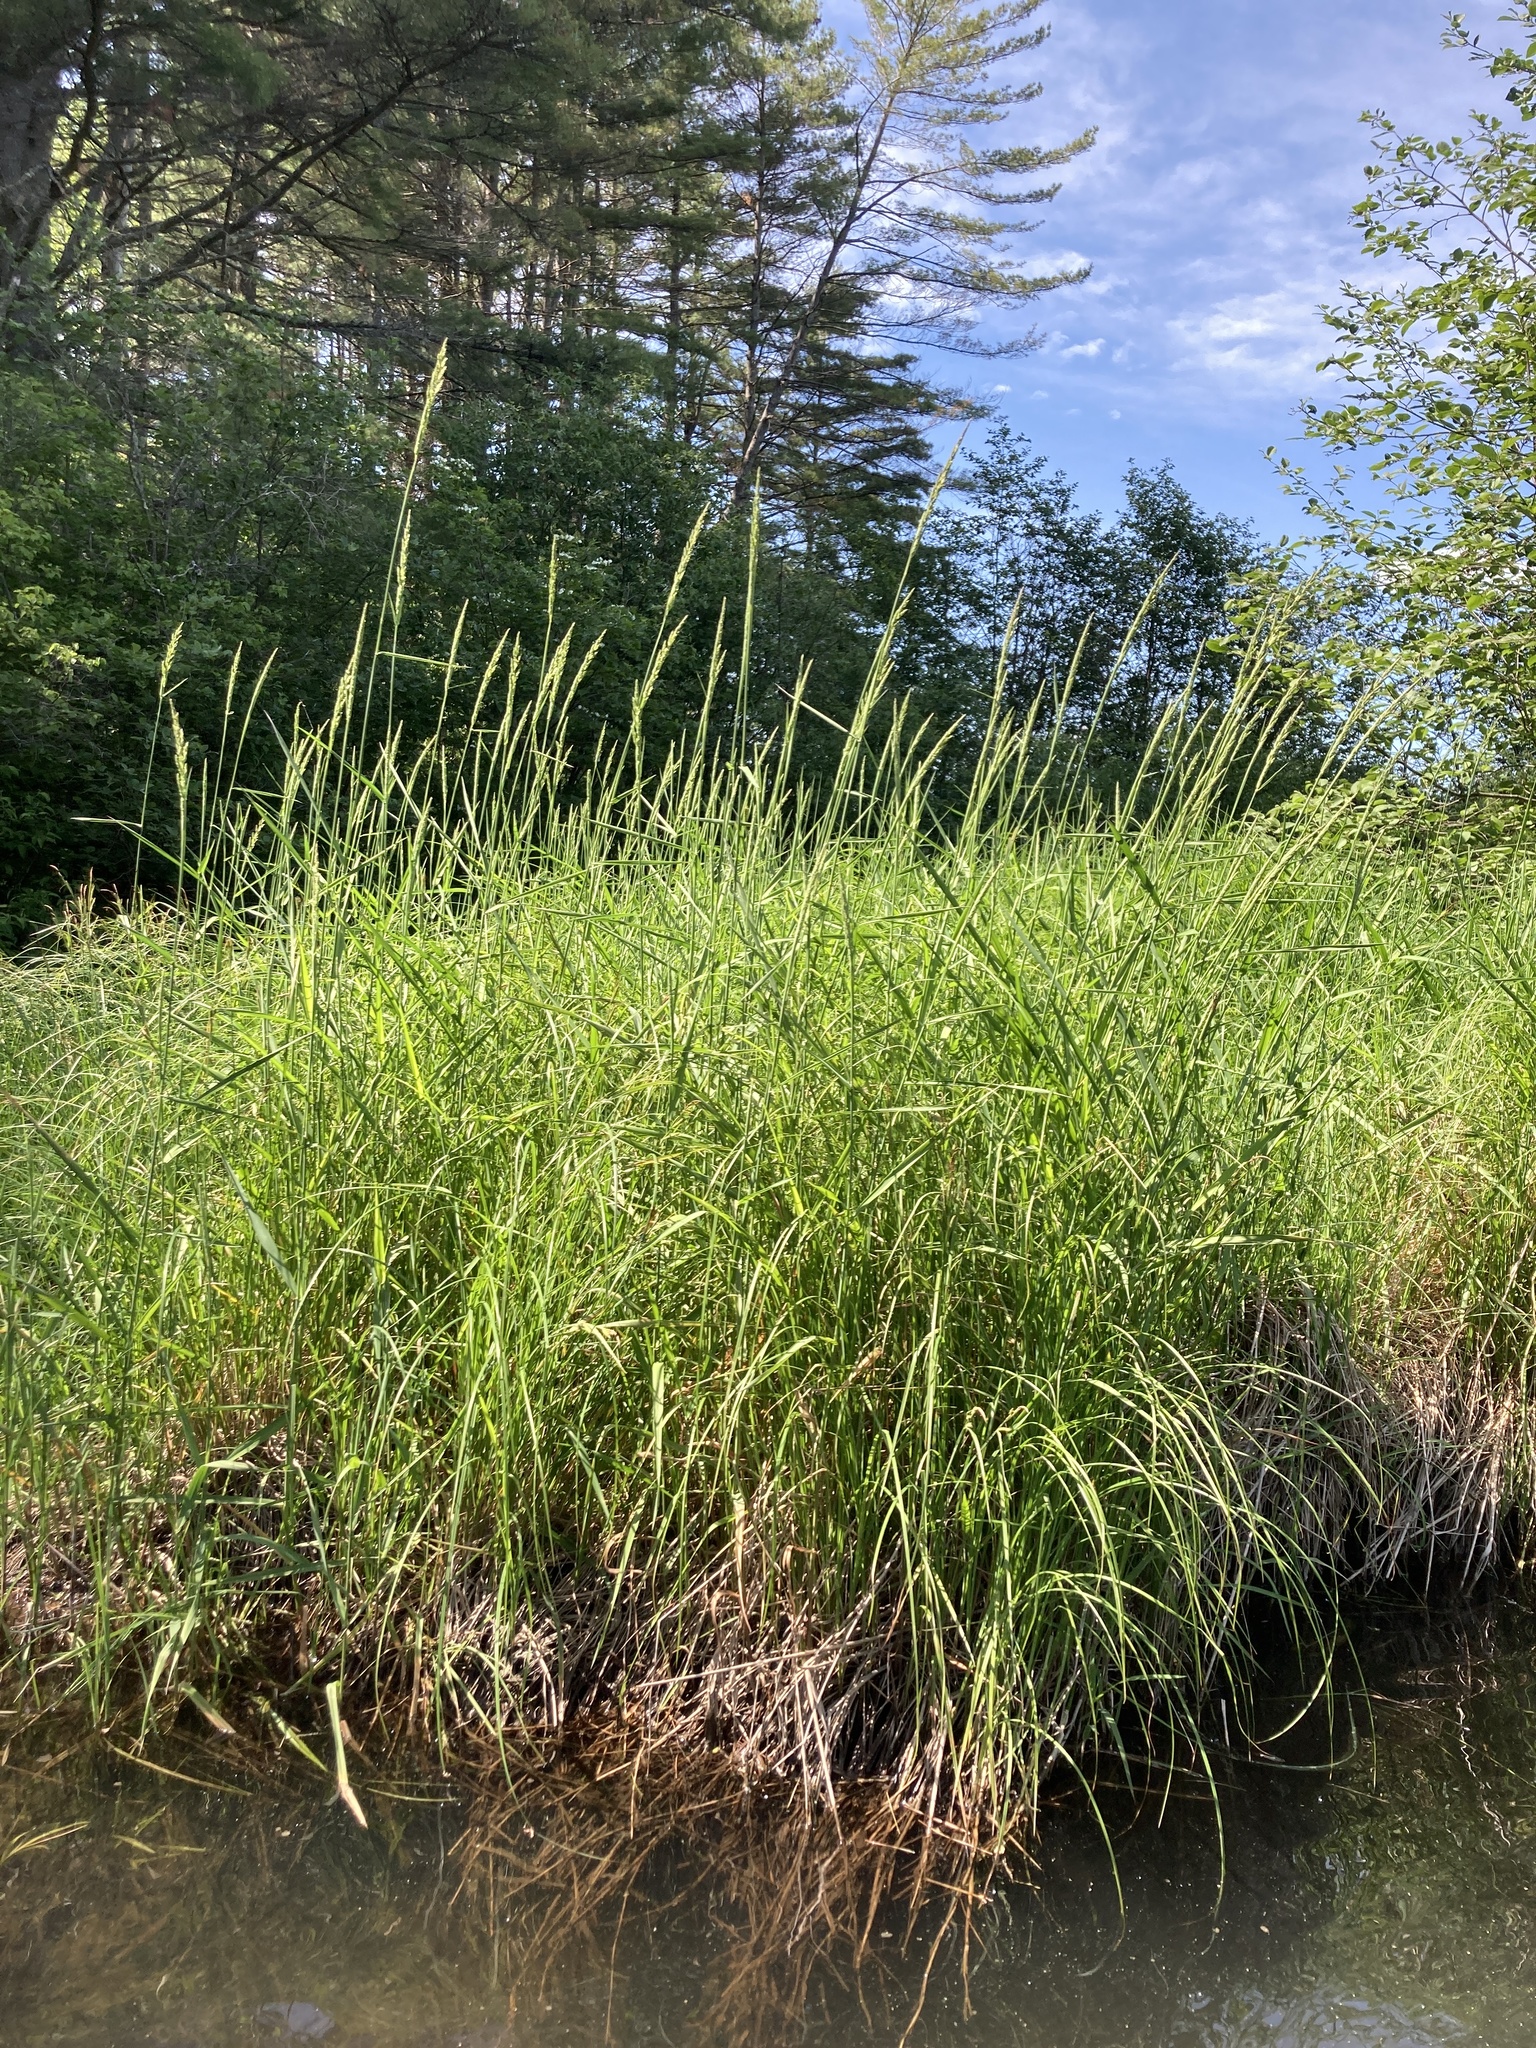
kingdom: Plantae
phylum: Tracheophyta
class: Liliopsida
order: Poales
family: Poaceae
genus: Phalaris
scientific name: Phalaris arundinacea
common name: Reed canary-grass
